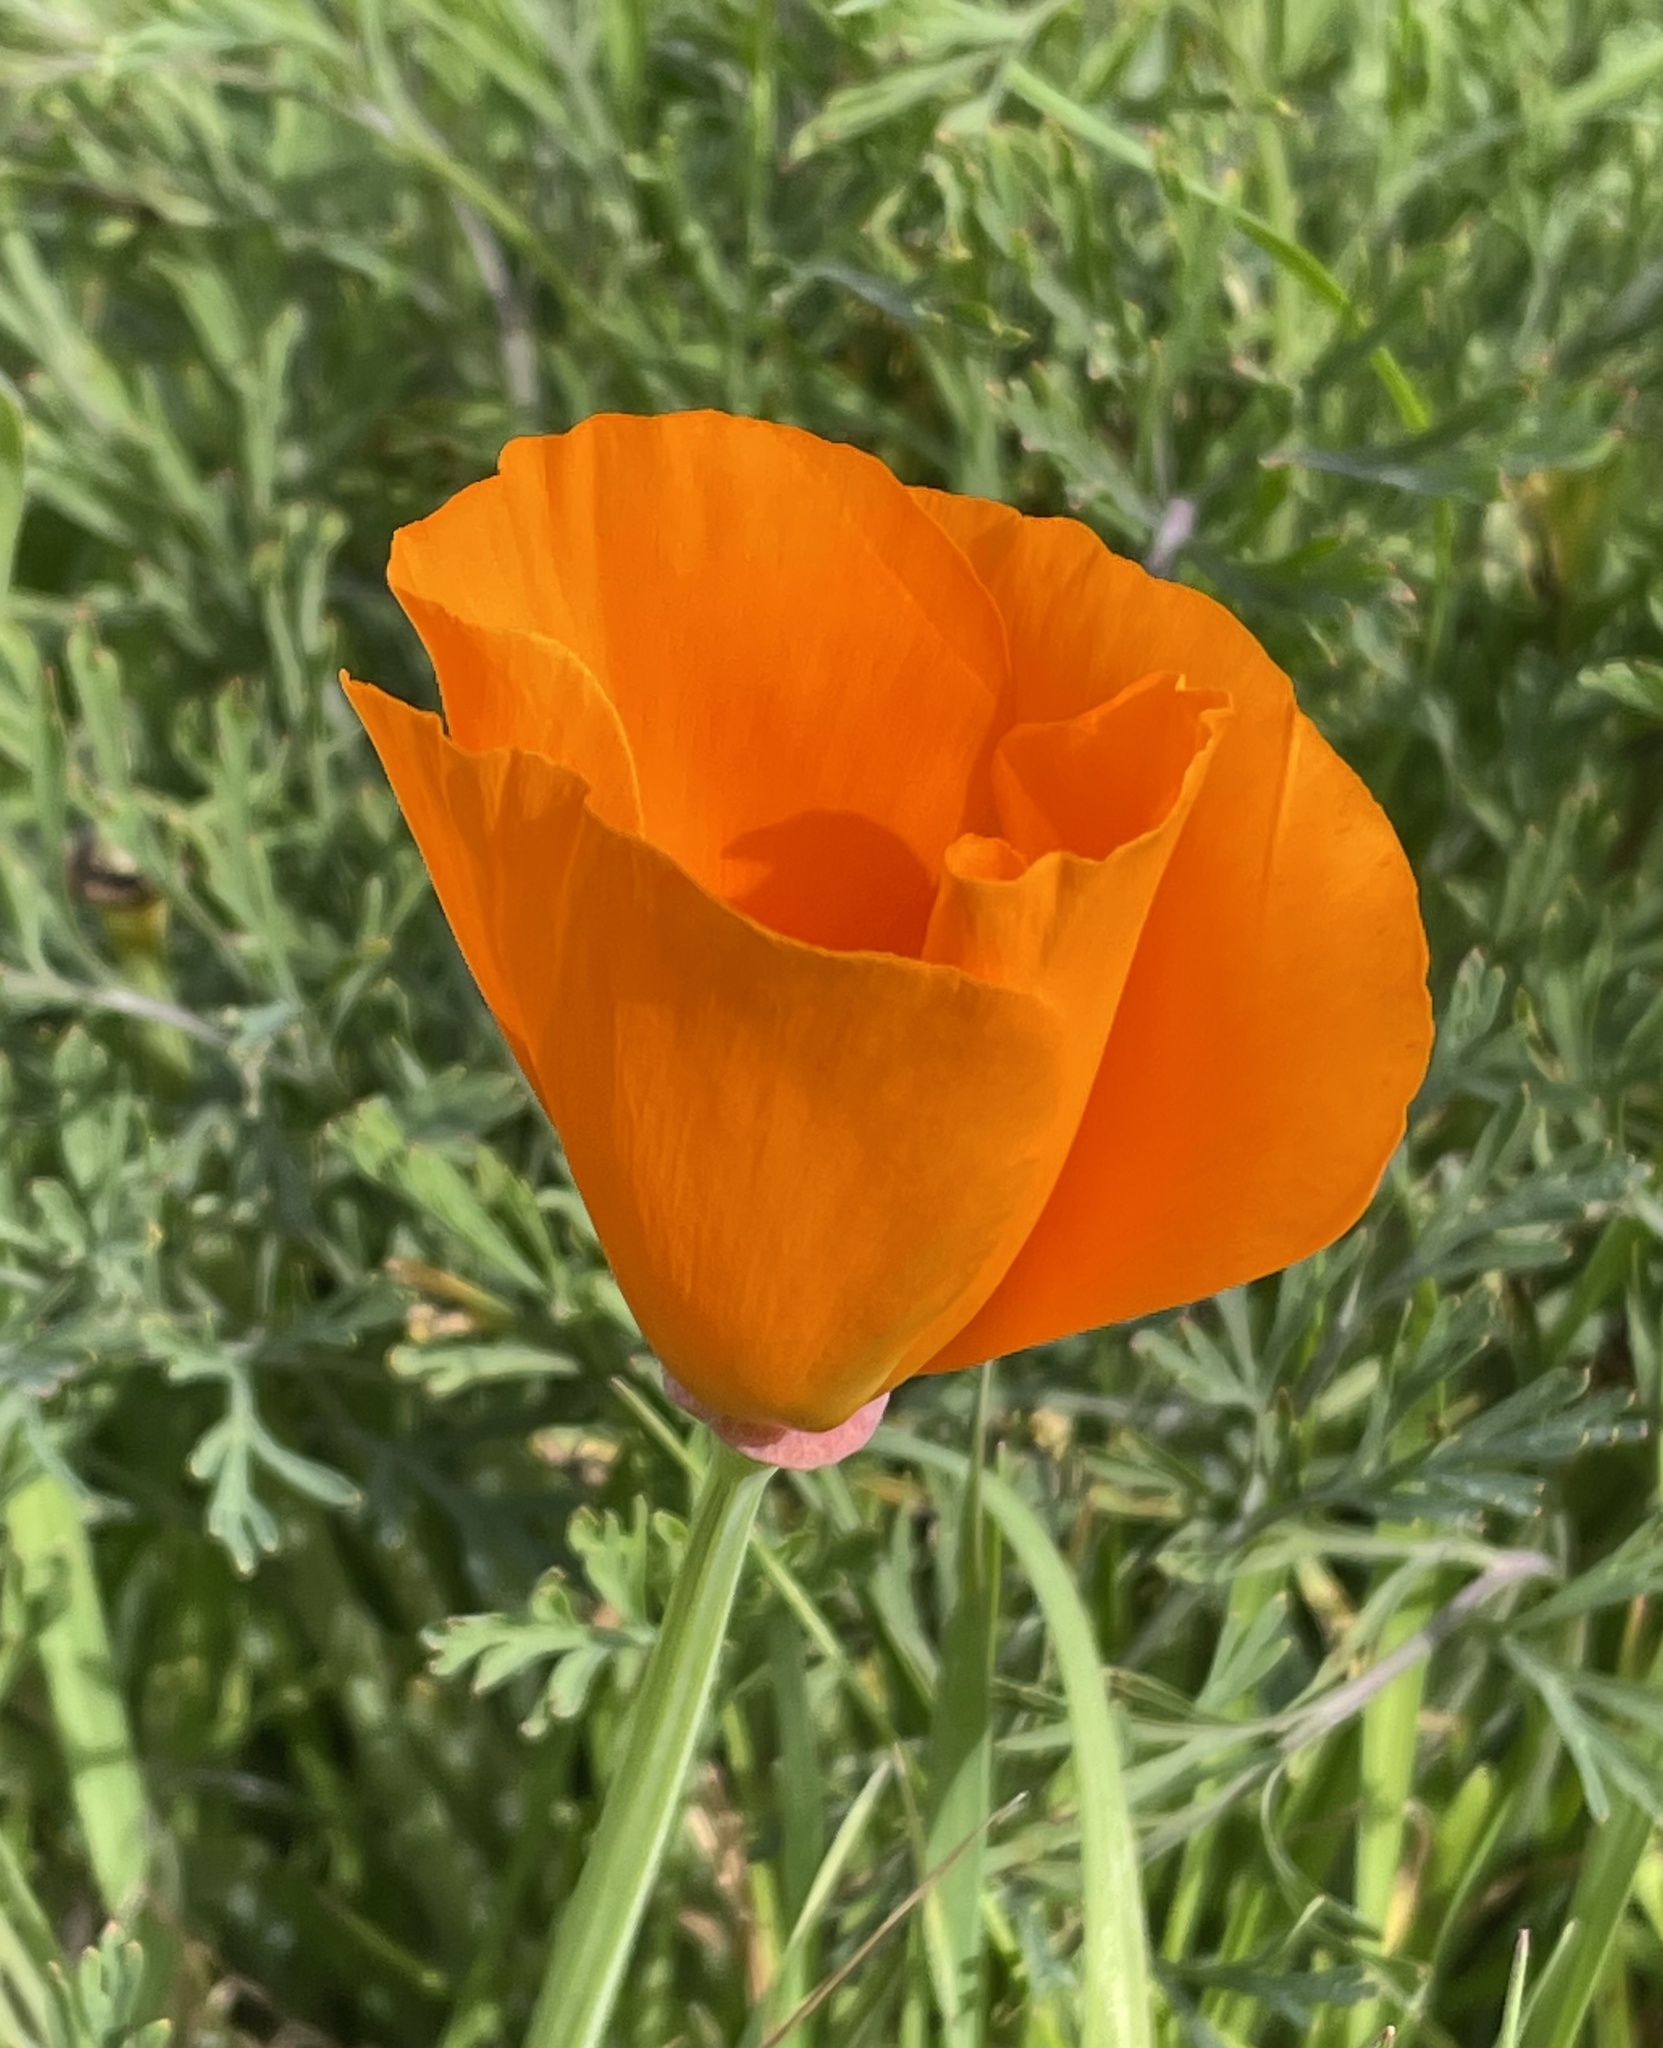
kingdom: Plantae
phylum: Tracheophyta
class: Magnoliopsida
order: Ranunculales
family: Papaveraceae
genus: Eschscholzia
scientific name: Eschscholzia californica
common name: California poppy
